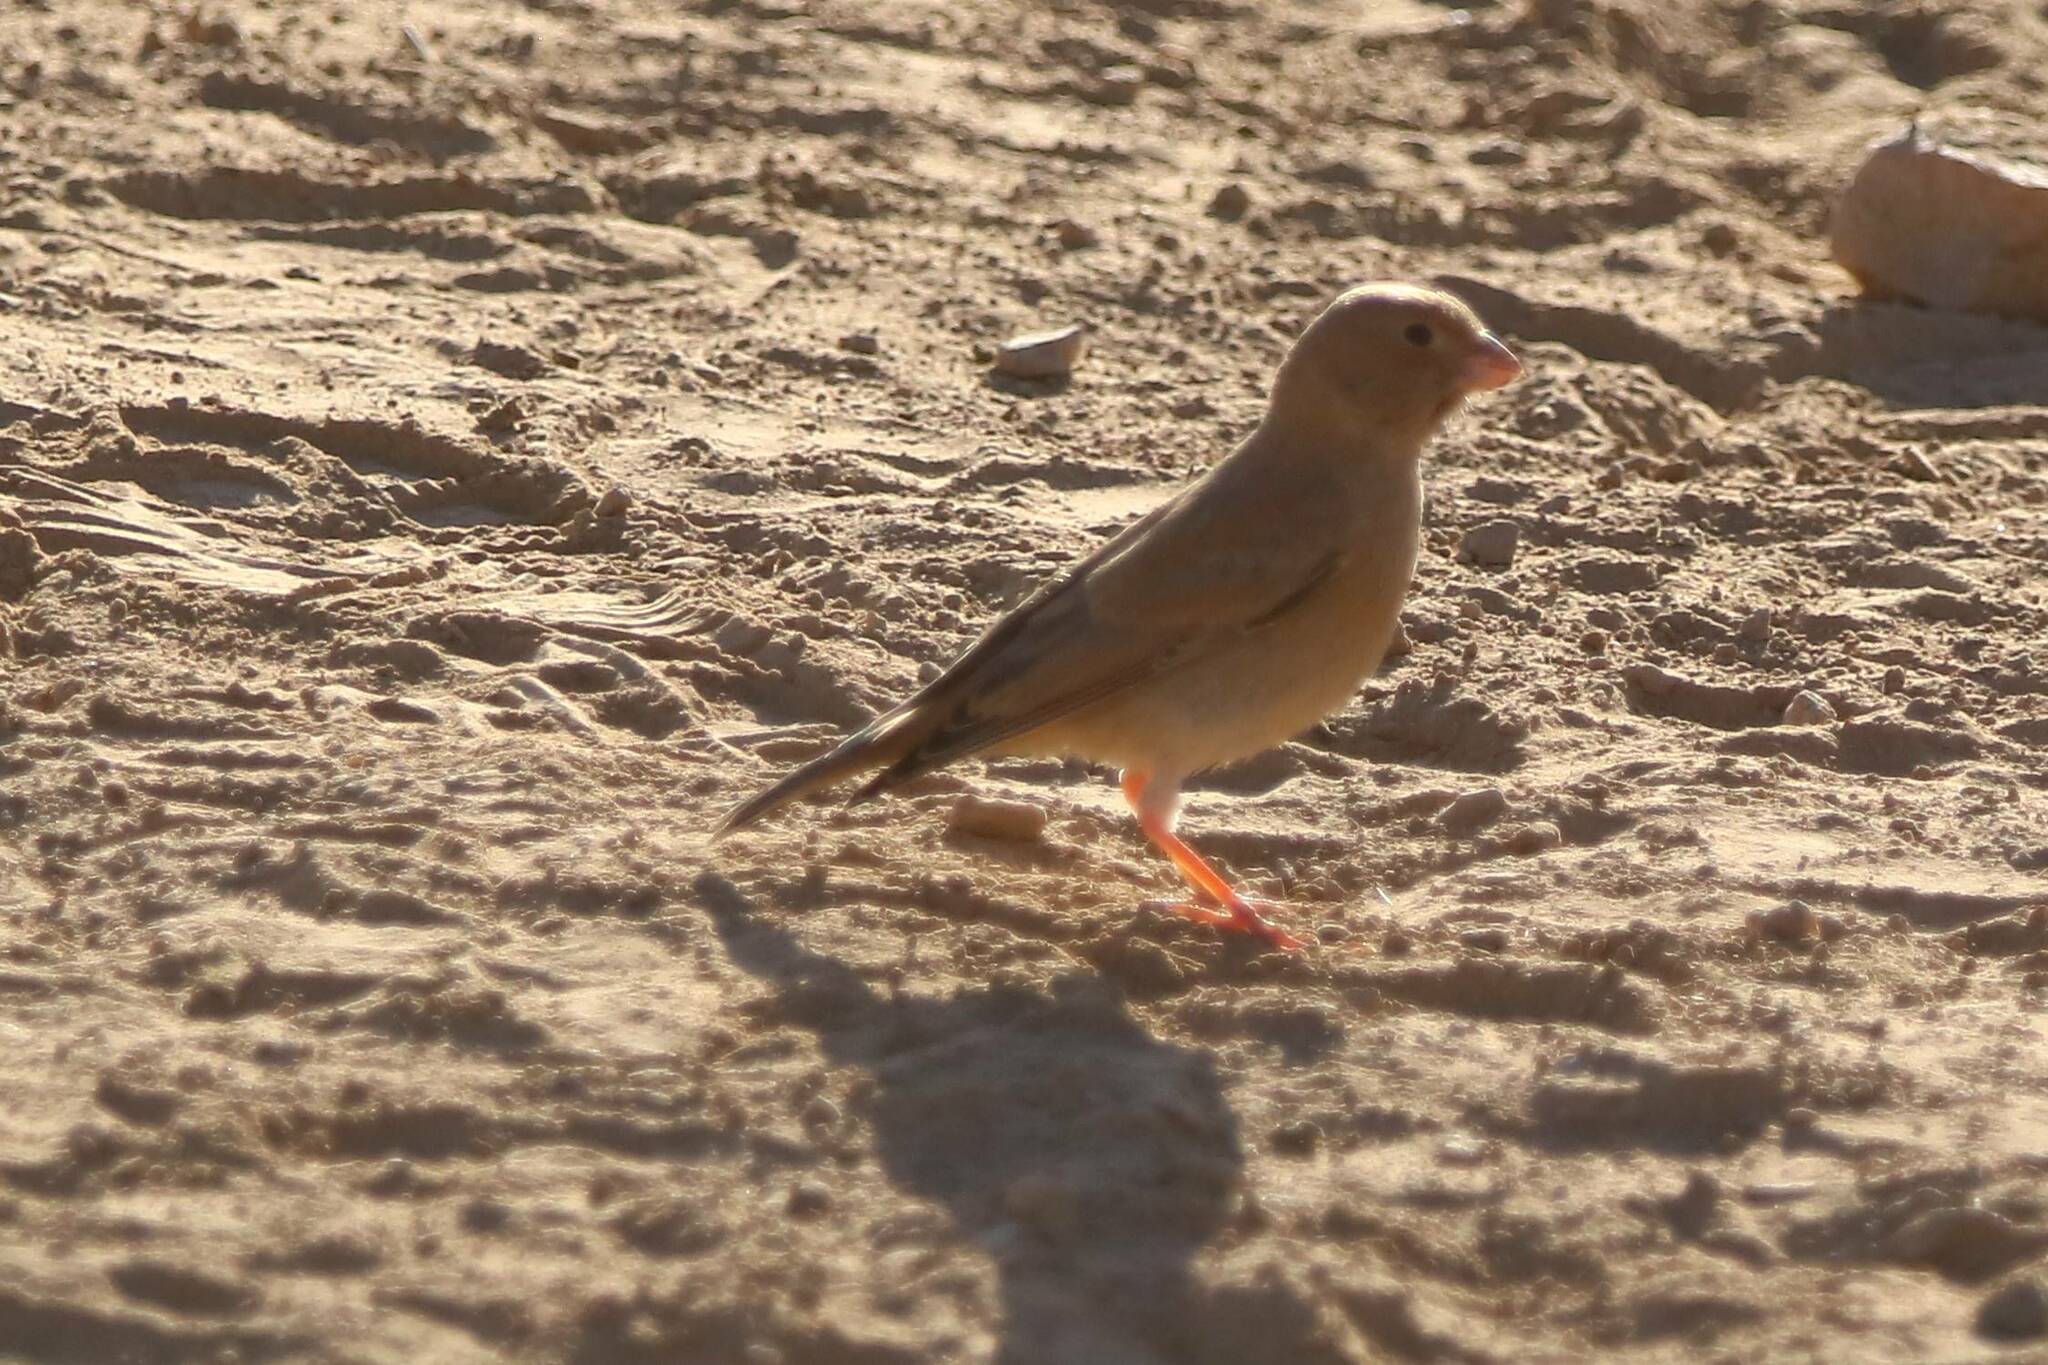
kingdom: Animalia
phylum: Chordata
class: Aves
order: Passeriformes
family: Fringillidae
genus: Bucanetes
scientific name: Bucanetes githagineus
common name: Trumpeter finch
